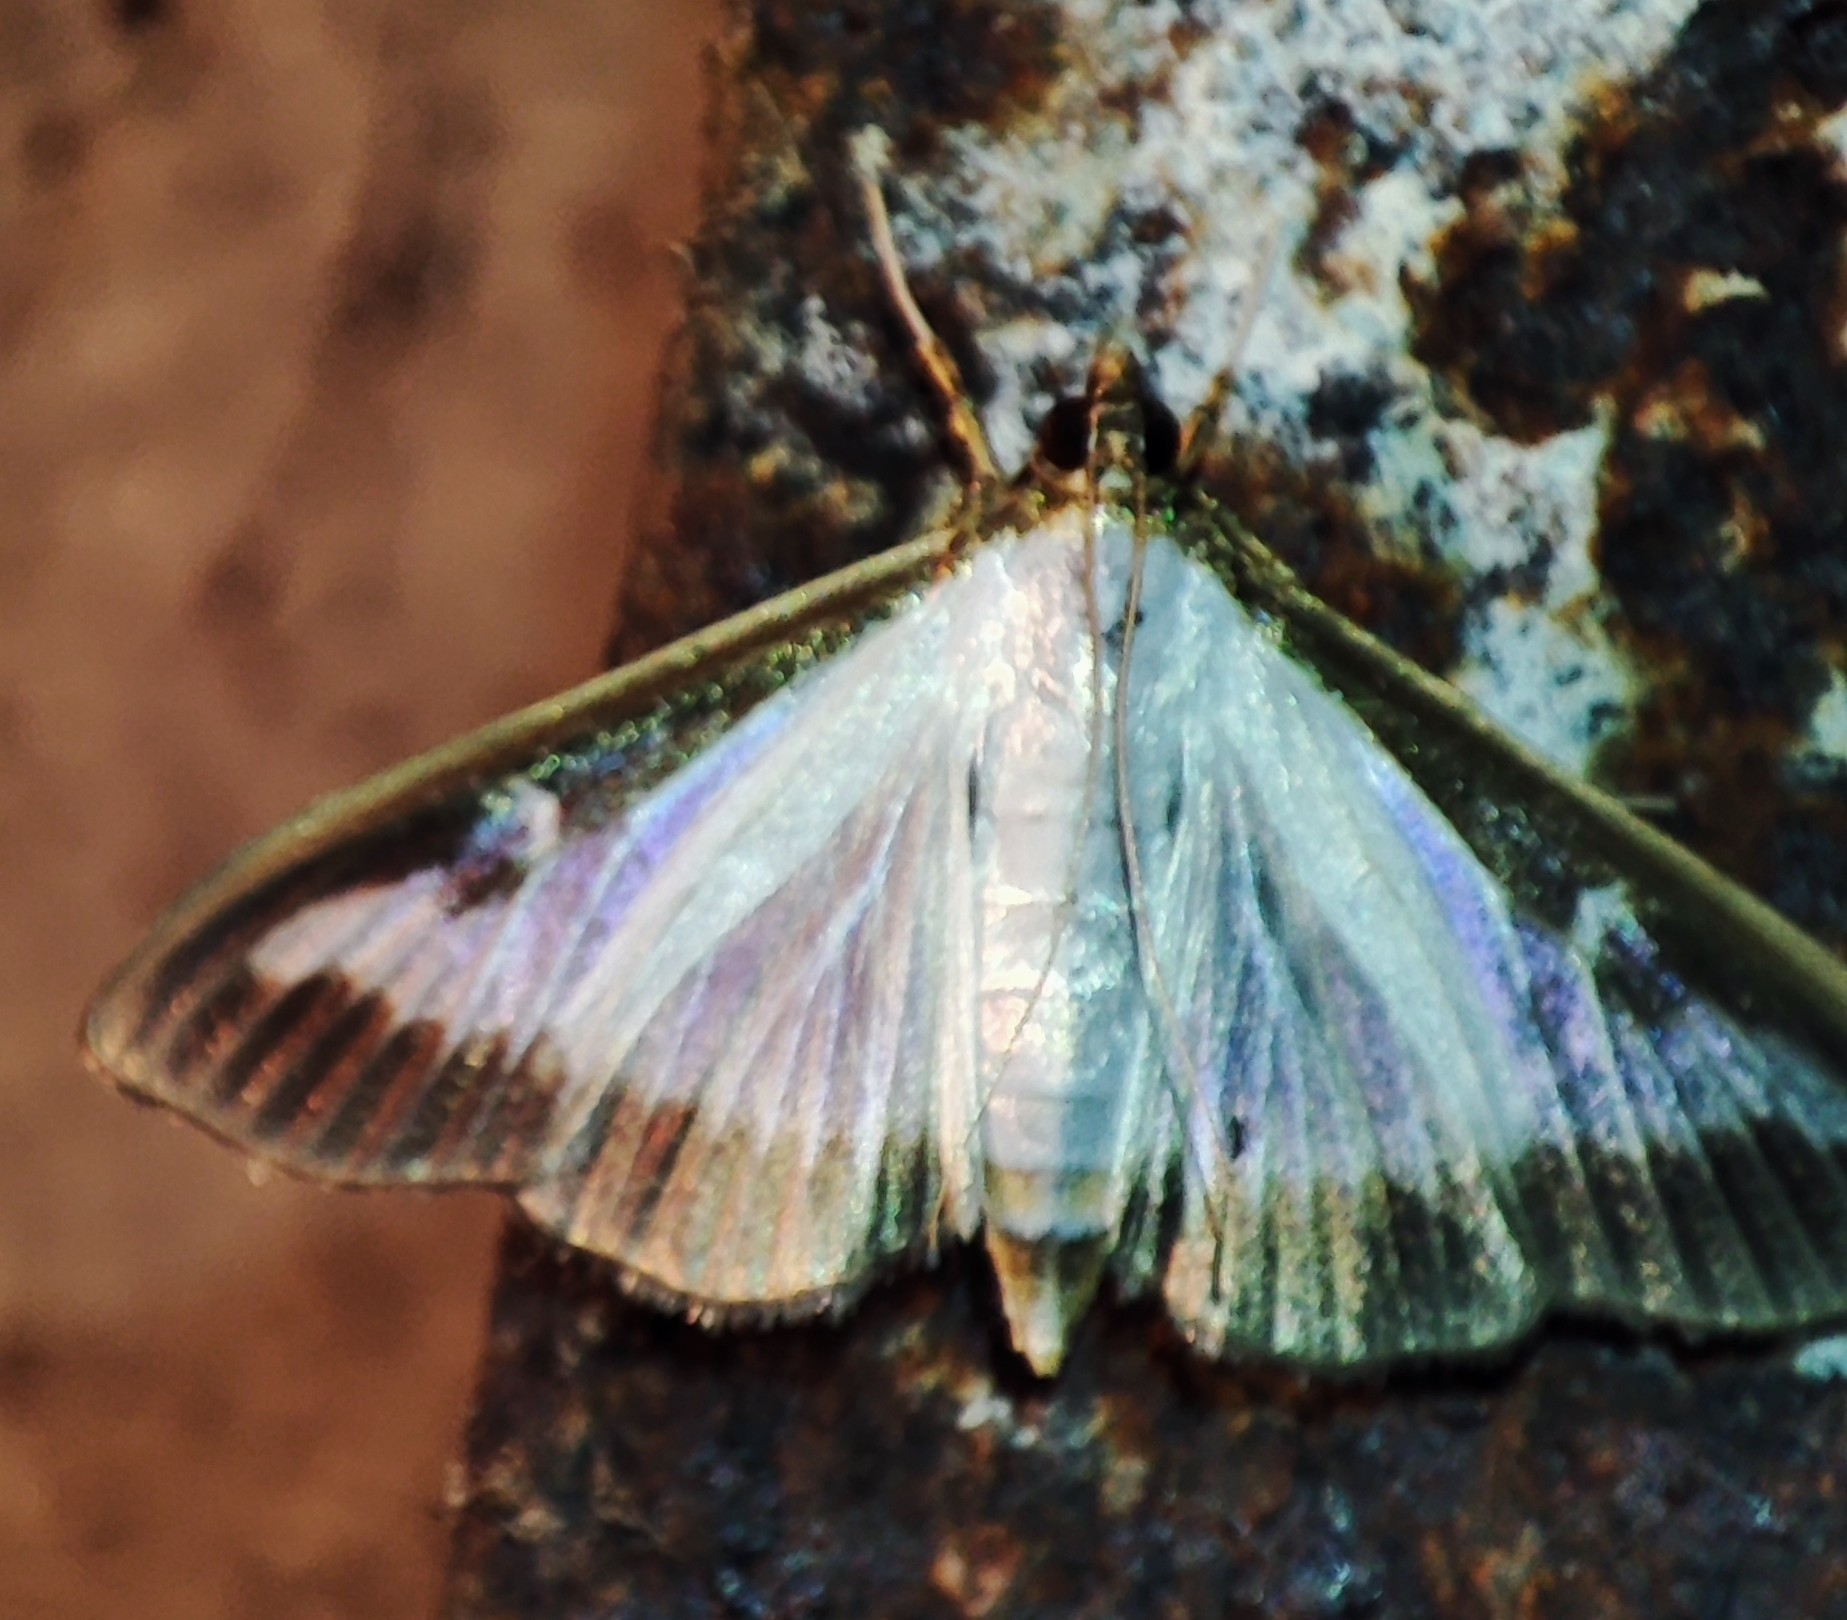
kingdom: Animalia
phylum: Arthropoda
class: Insecta
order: Lepidoptera
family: Crambidae
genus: Cydalima
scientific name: Cydalima perspectalis
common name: Box tree moth
